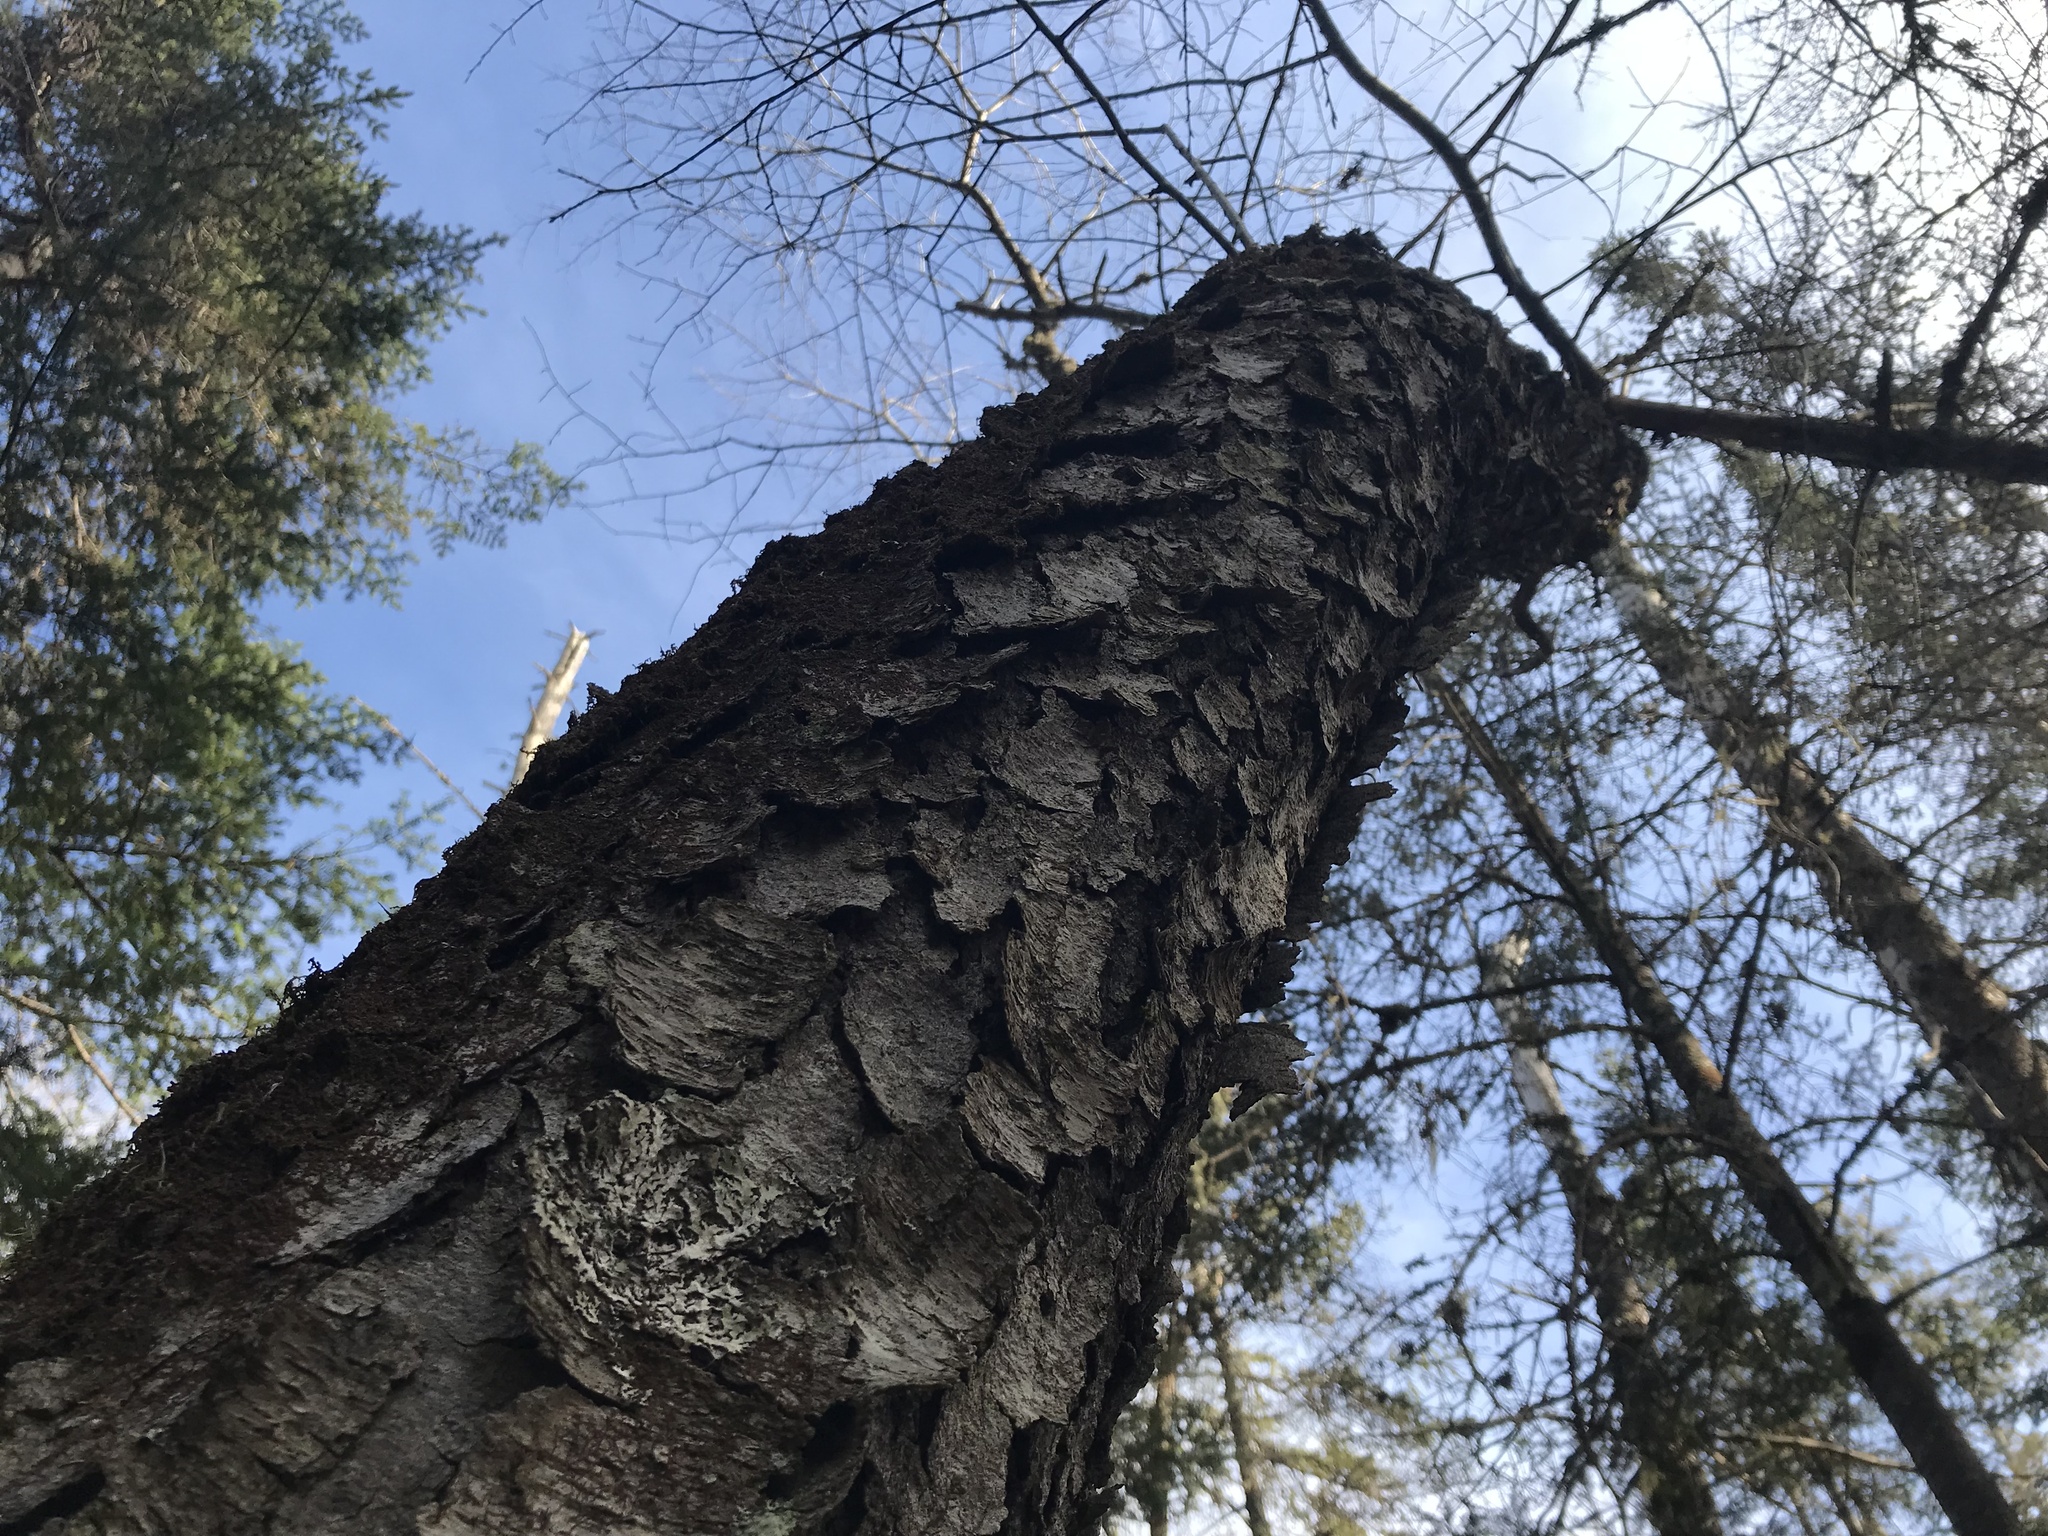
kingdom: Plantae
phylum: Tracheophyta
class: Magnoliopsida
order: Rosales
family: Rosaceae
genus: Prunus
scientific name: Prunus serotina
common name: Black cherry
